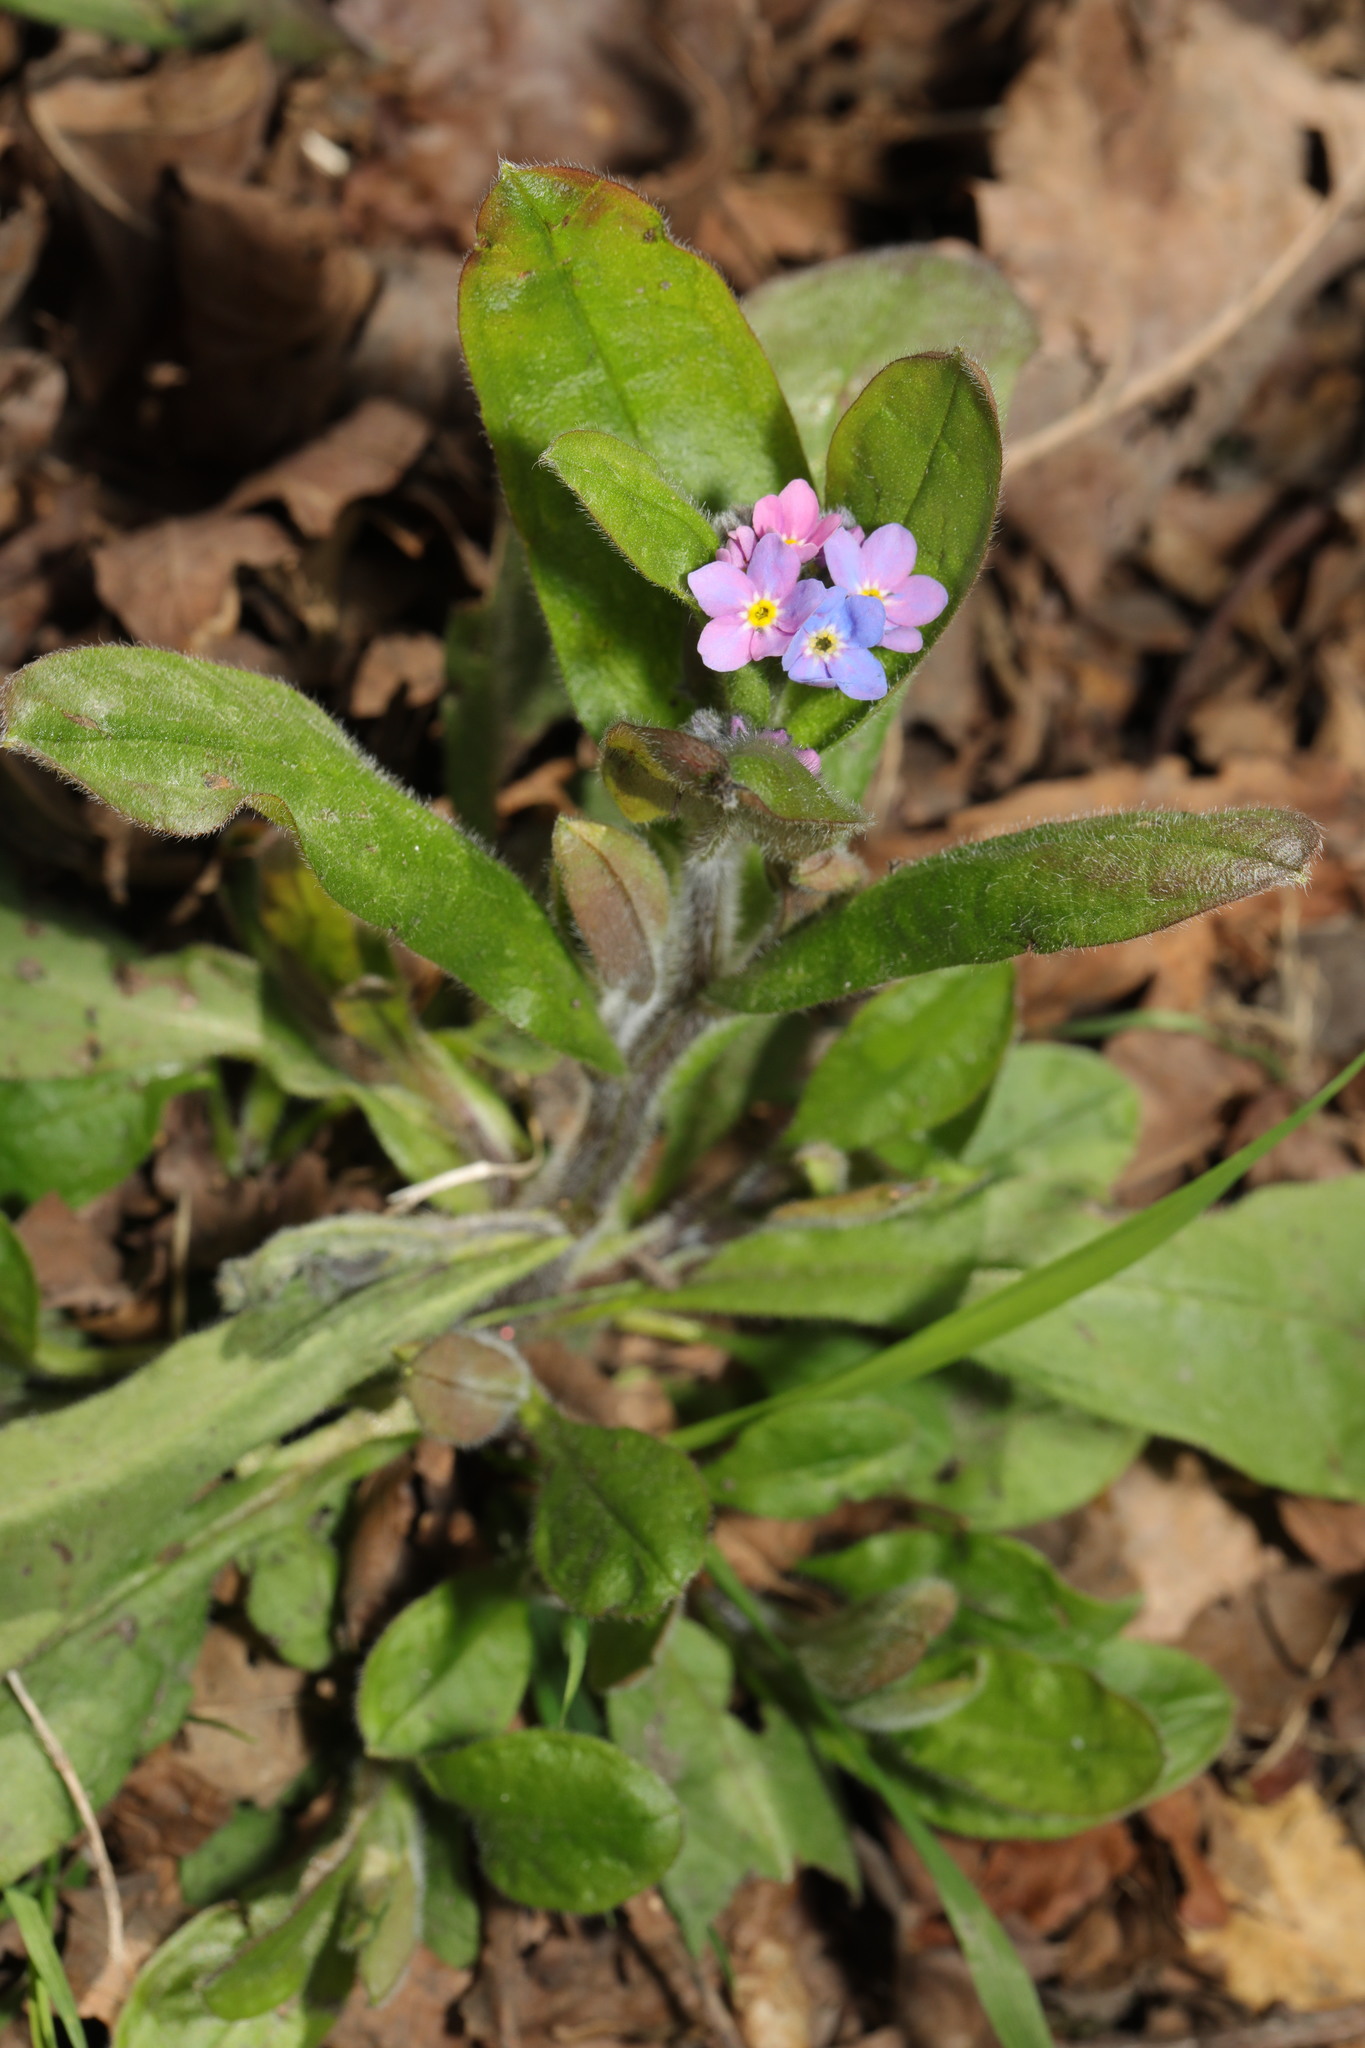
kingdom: Plantae
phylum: Tracheophyta
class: Magnoliopsida
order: Boraginales
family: Boraginaceae
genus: Myosotis
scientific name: Myosotis sylvatica
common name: Wood forget-me-not
